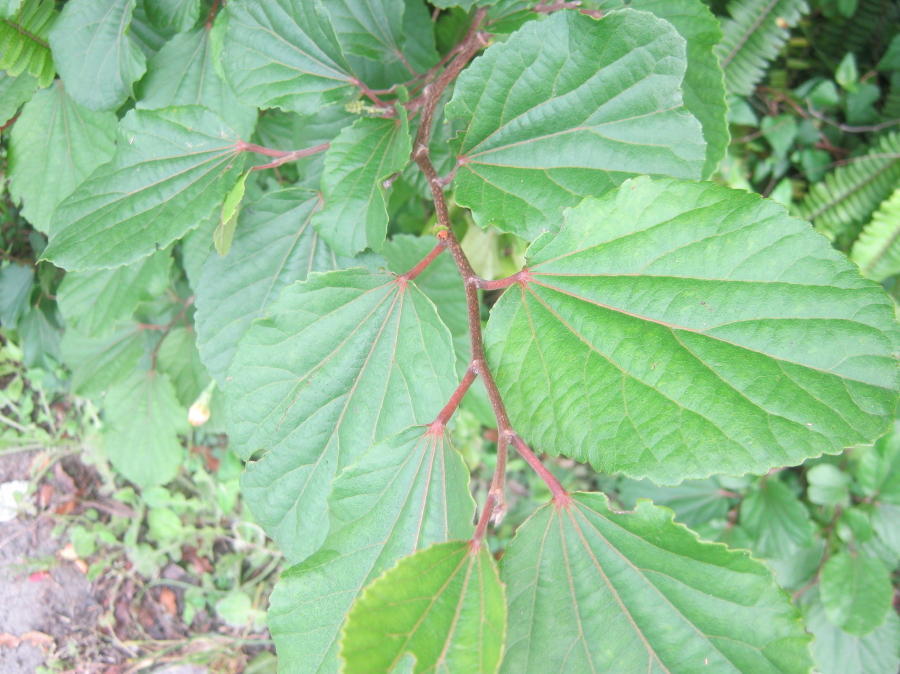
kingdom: Plantae
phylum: Tracheophyta
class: Magnoliopsida
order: Malpighiales
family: Salicaceae
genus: Trimeria
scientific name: Trimeria grandifolia
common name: Wild mulberry
